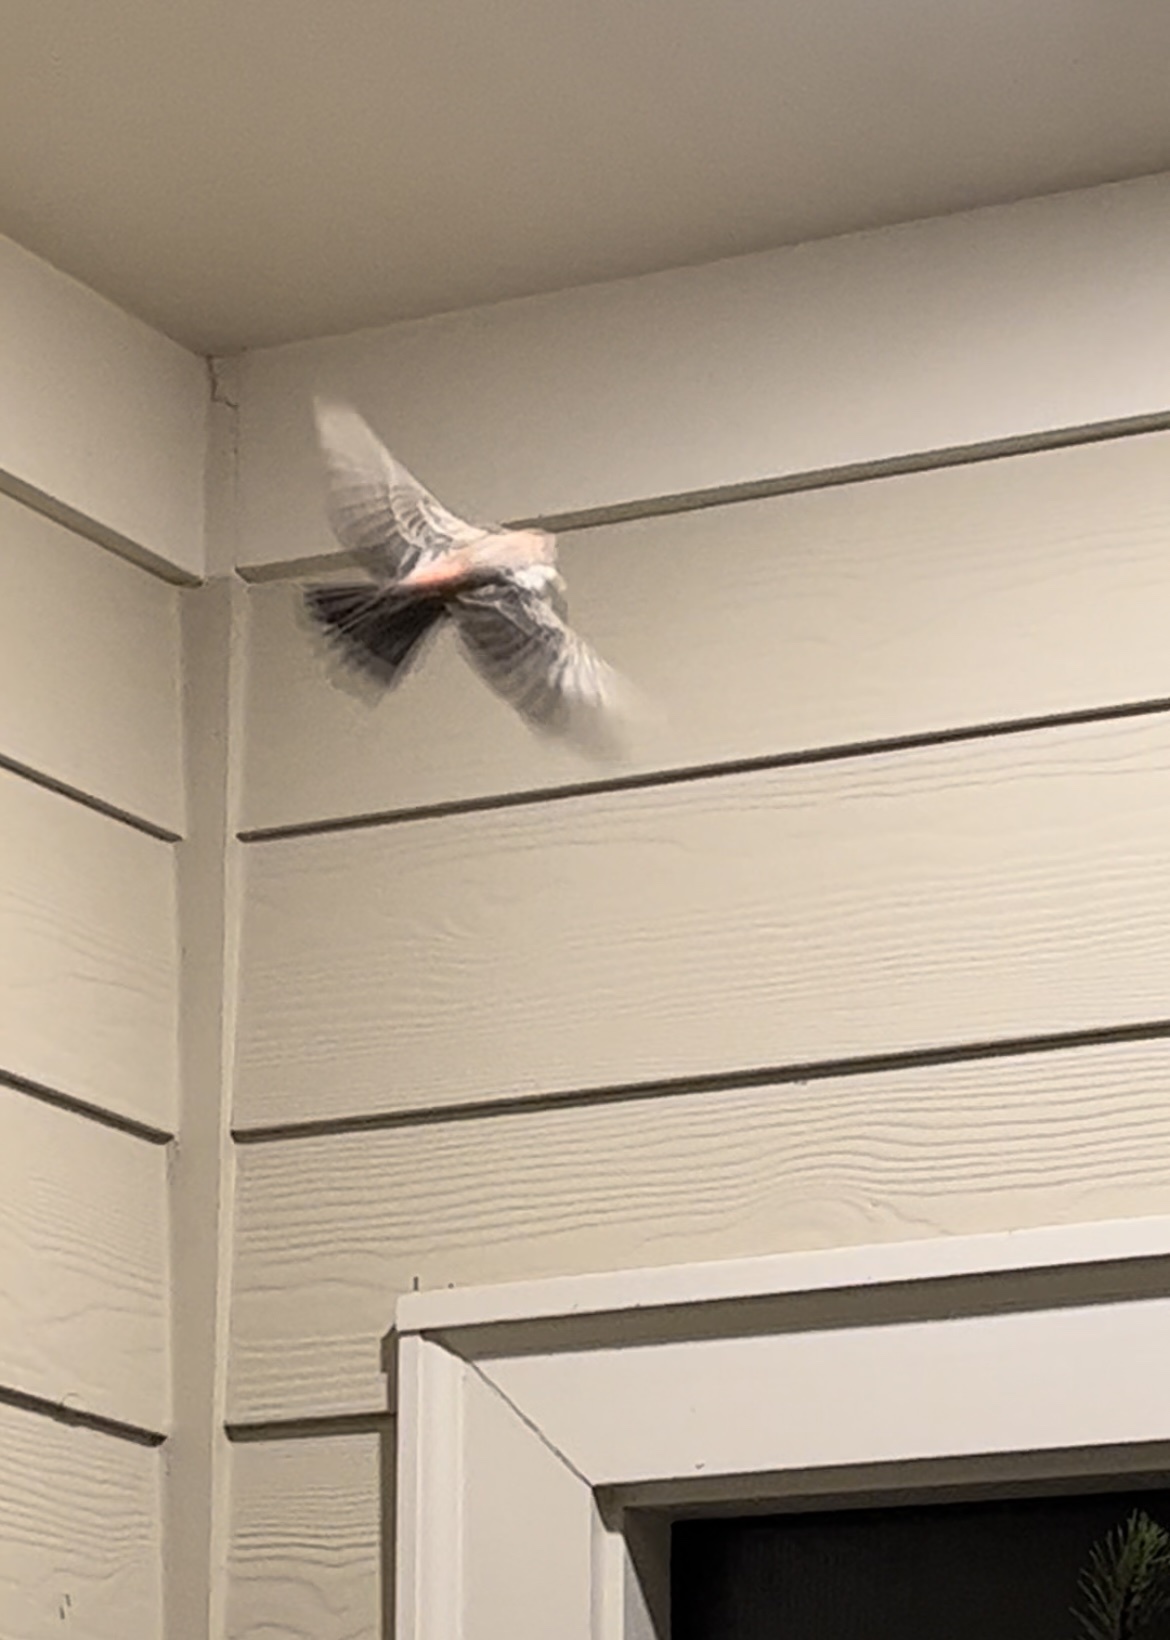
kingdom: Animalia
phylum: Chordata
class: Aves
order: Passeriformes
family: Fringillidae
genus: Haemorhous
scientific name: Haemorhous mexicanus
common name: House finch
